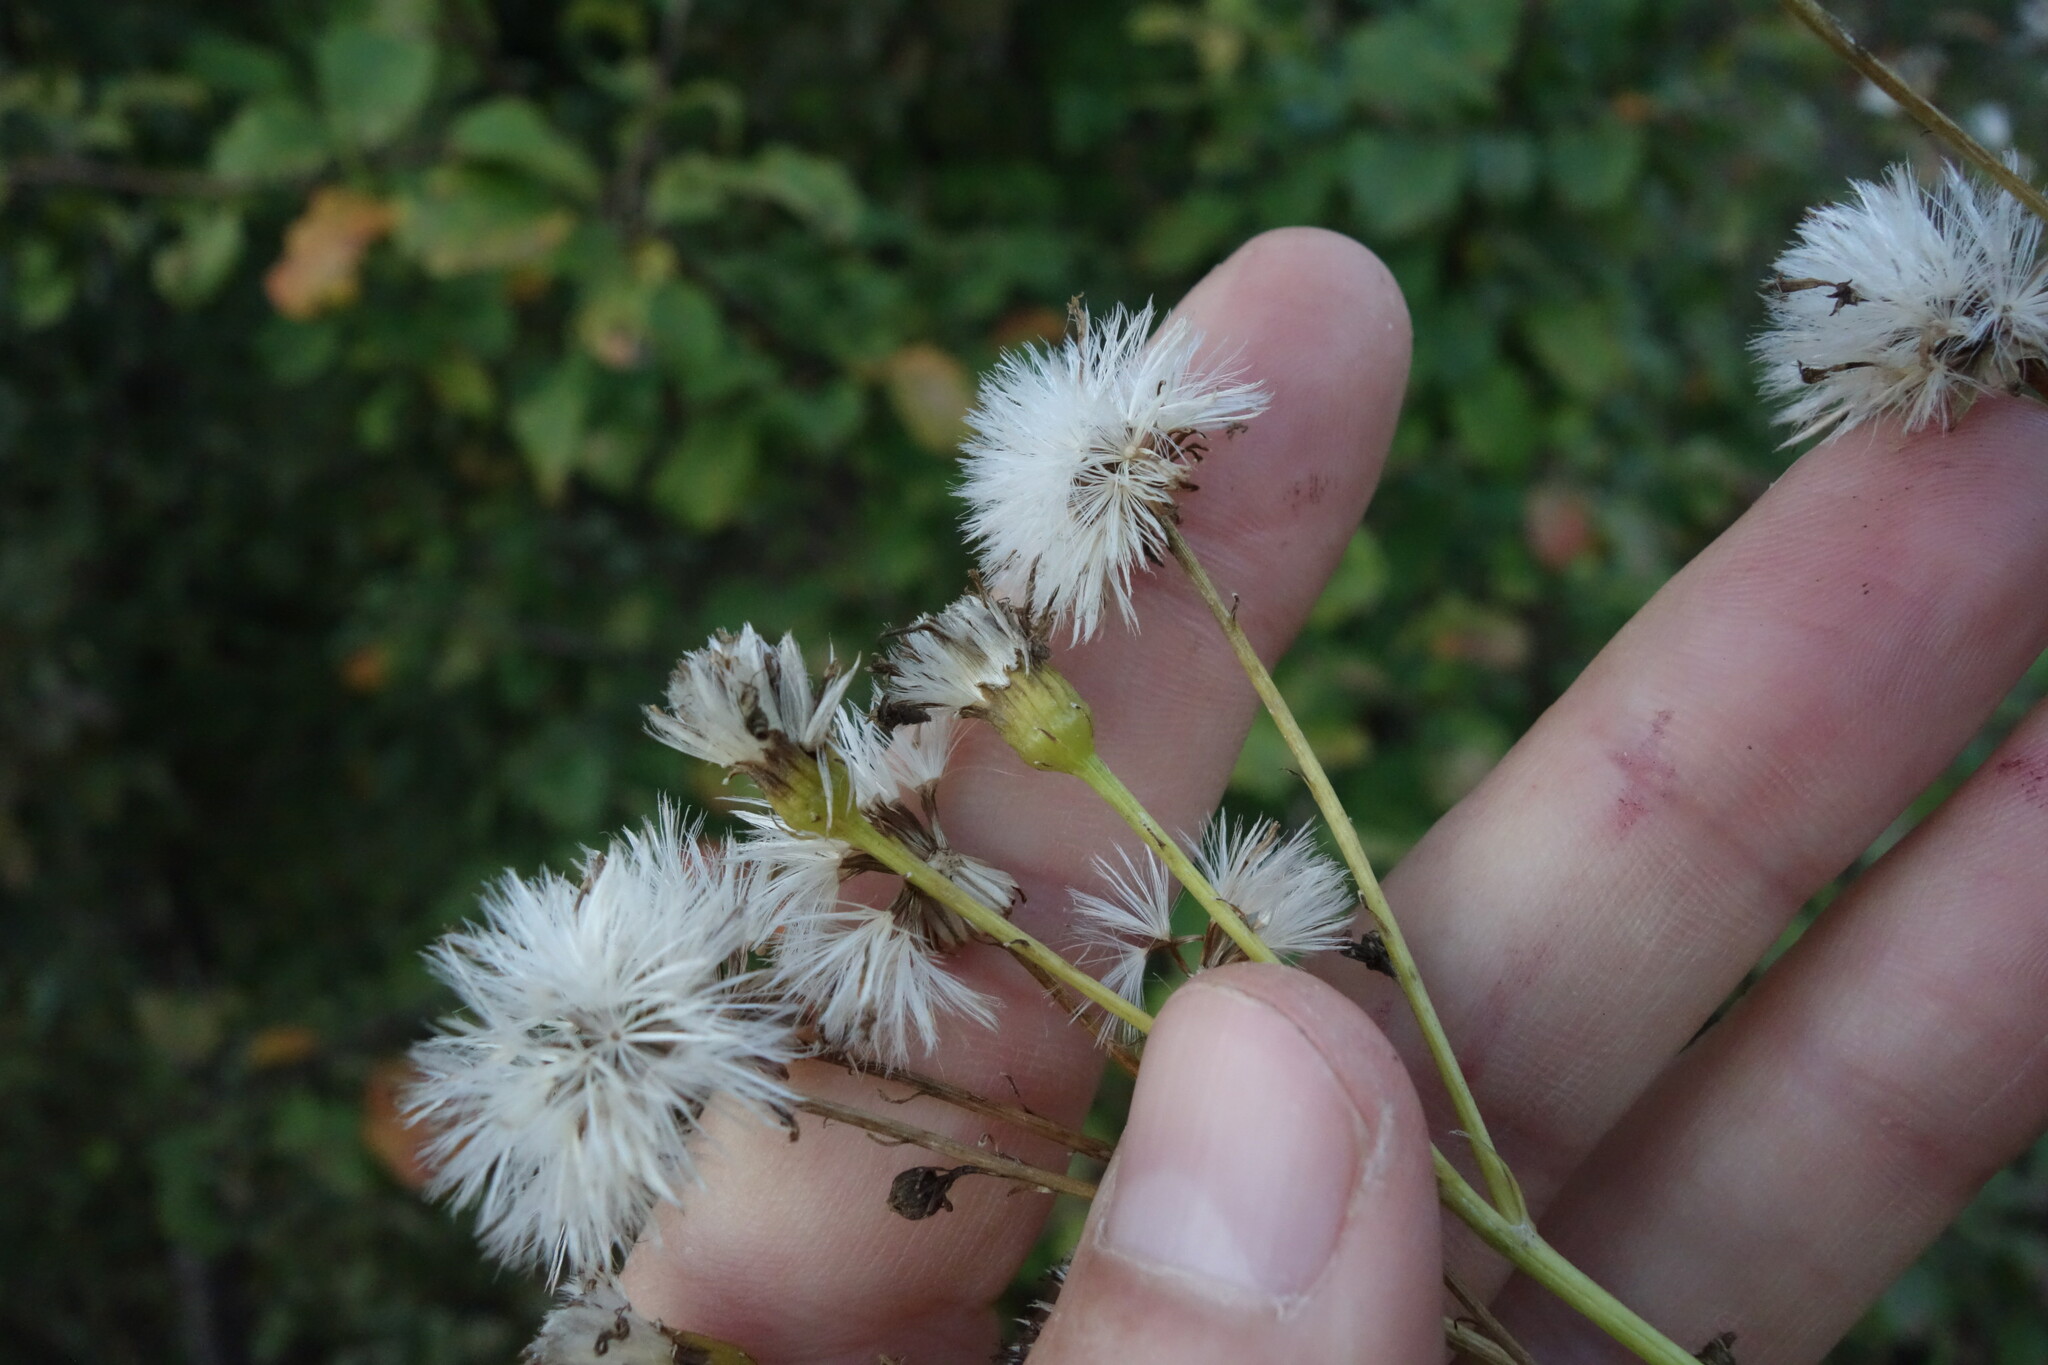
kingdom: Plantae
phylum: Tracheophyta
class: Magnoliopsida
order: Asterales
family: Asteraceae
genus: Senecio
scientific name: Senecio doria
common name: Golden ragwort
